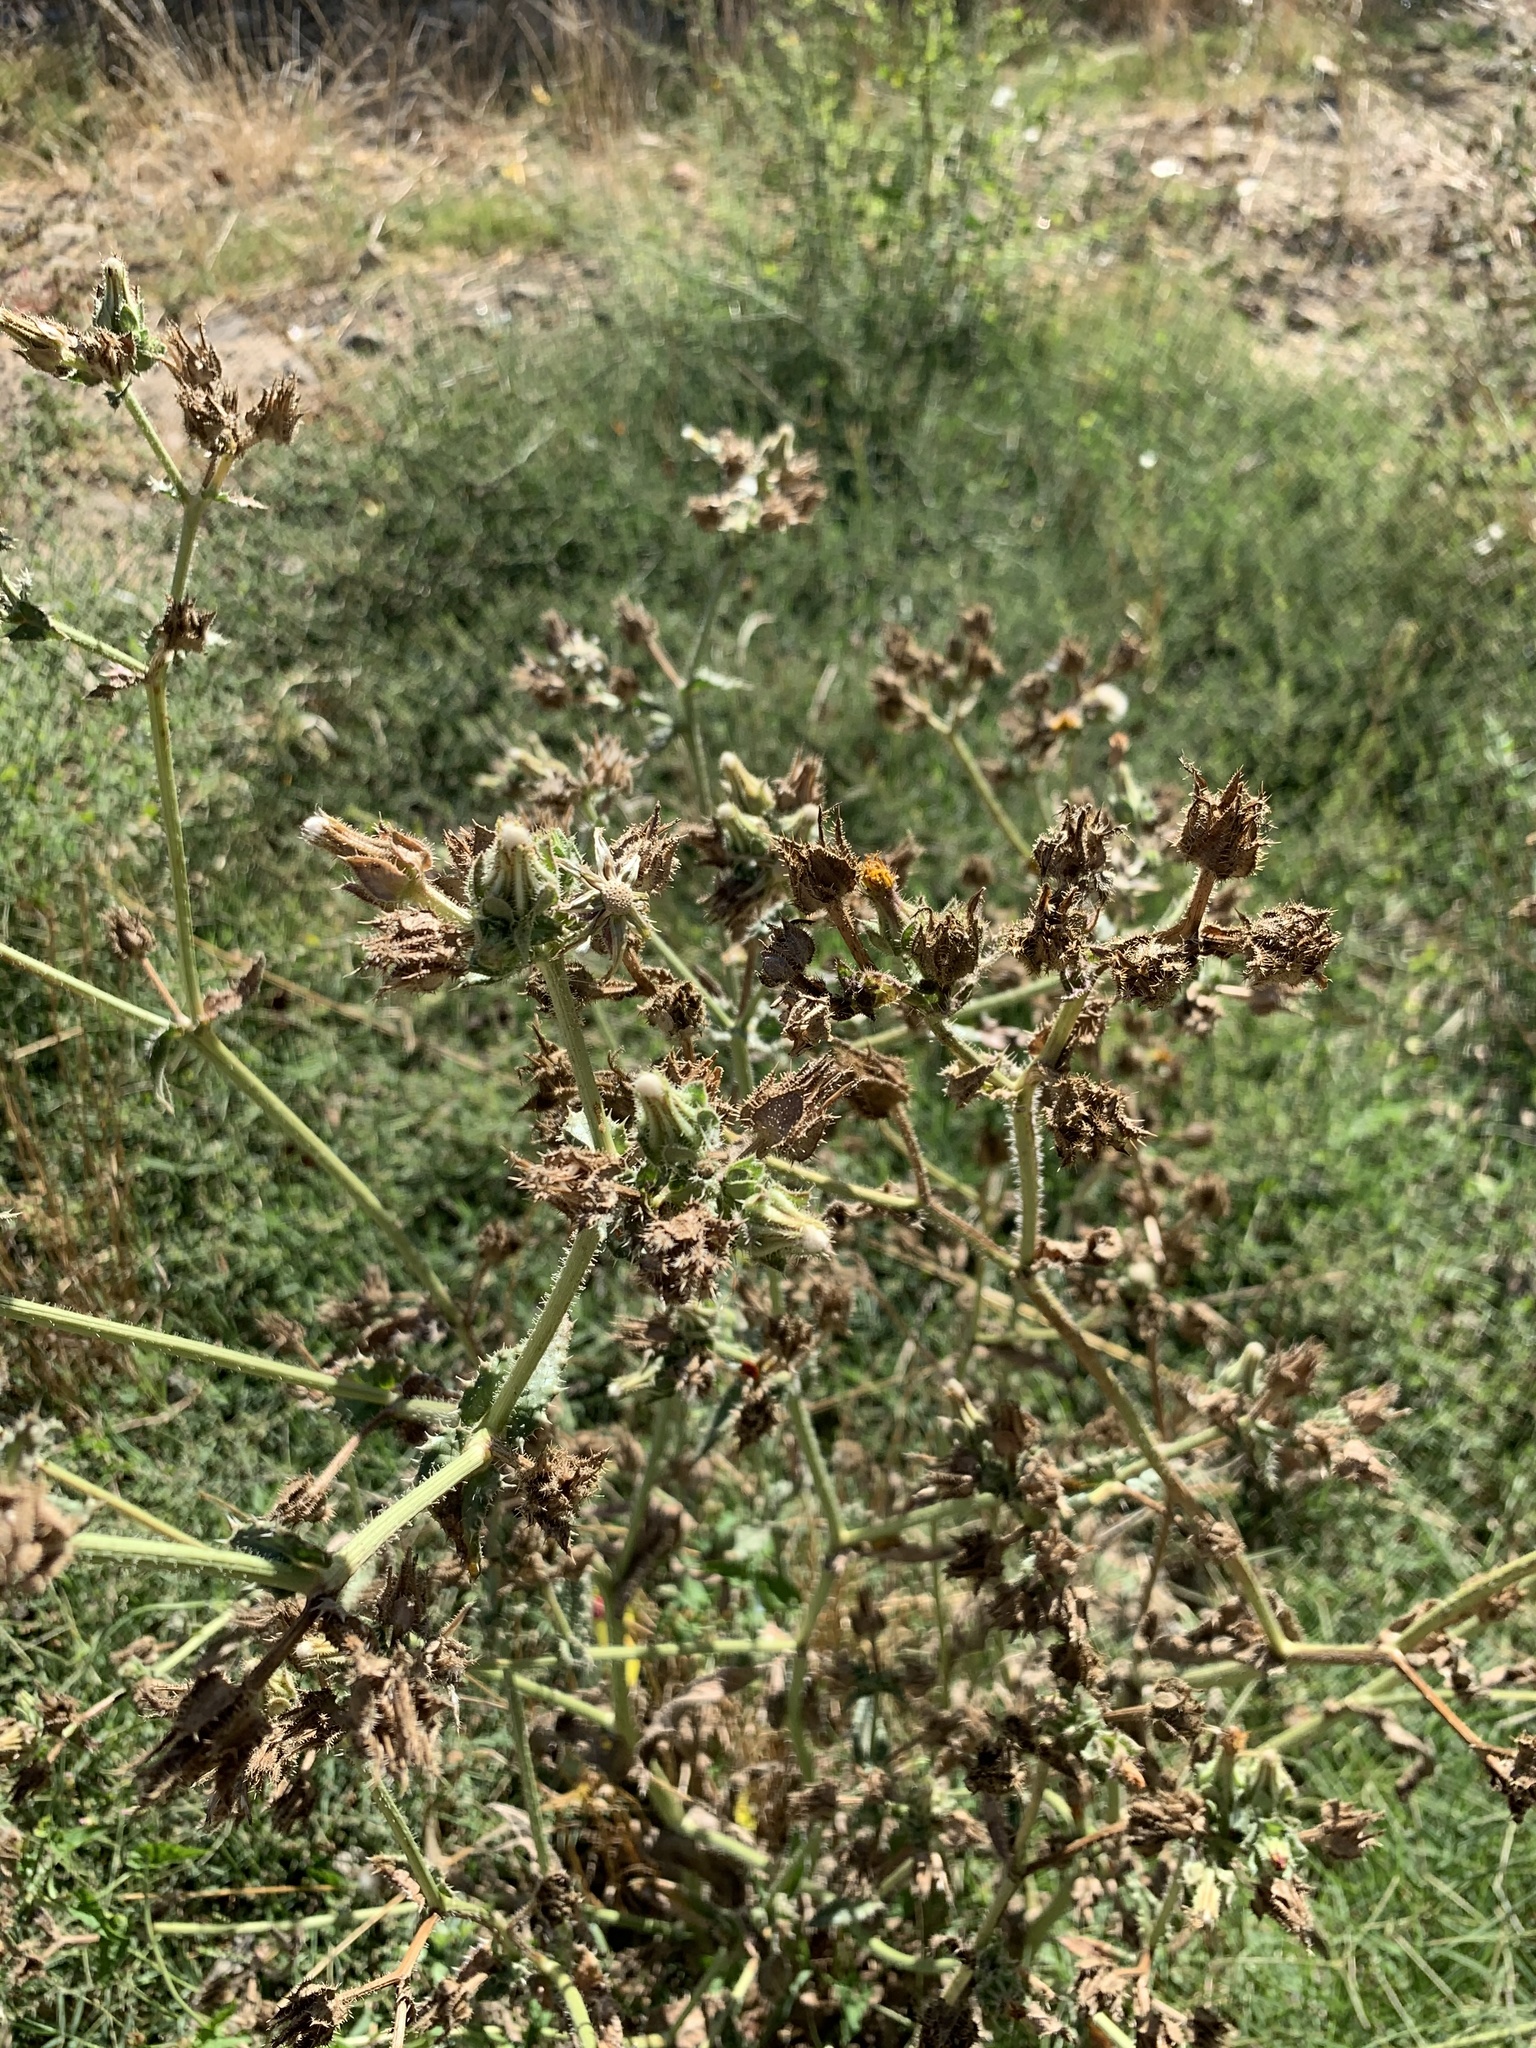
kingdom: Plantae
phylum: Tracheophyta
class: Magnoliopsida
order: Asterales
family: Asteraceae
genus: Helminthotheca
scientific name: Helminthotheca echioides
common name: Ox-tongue
